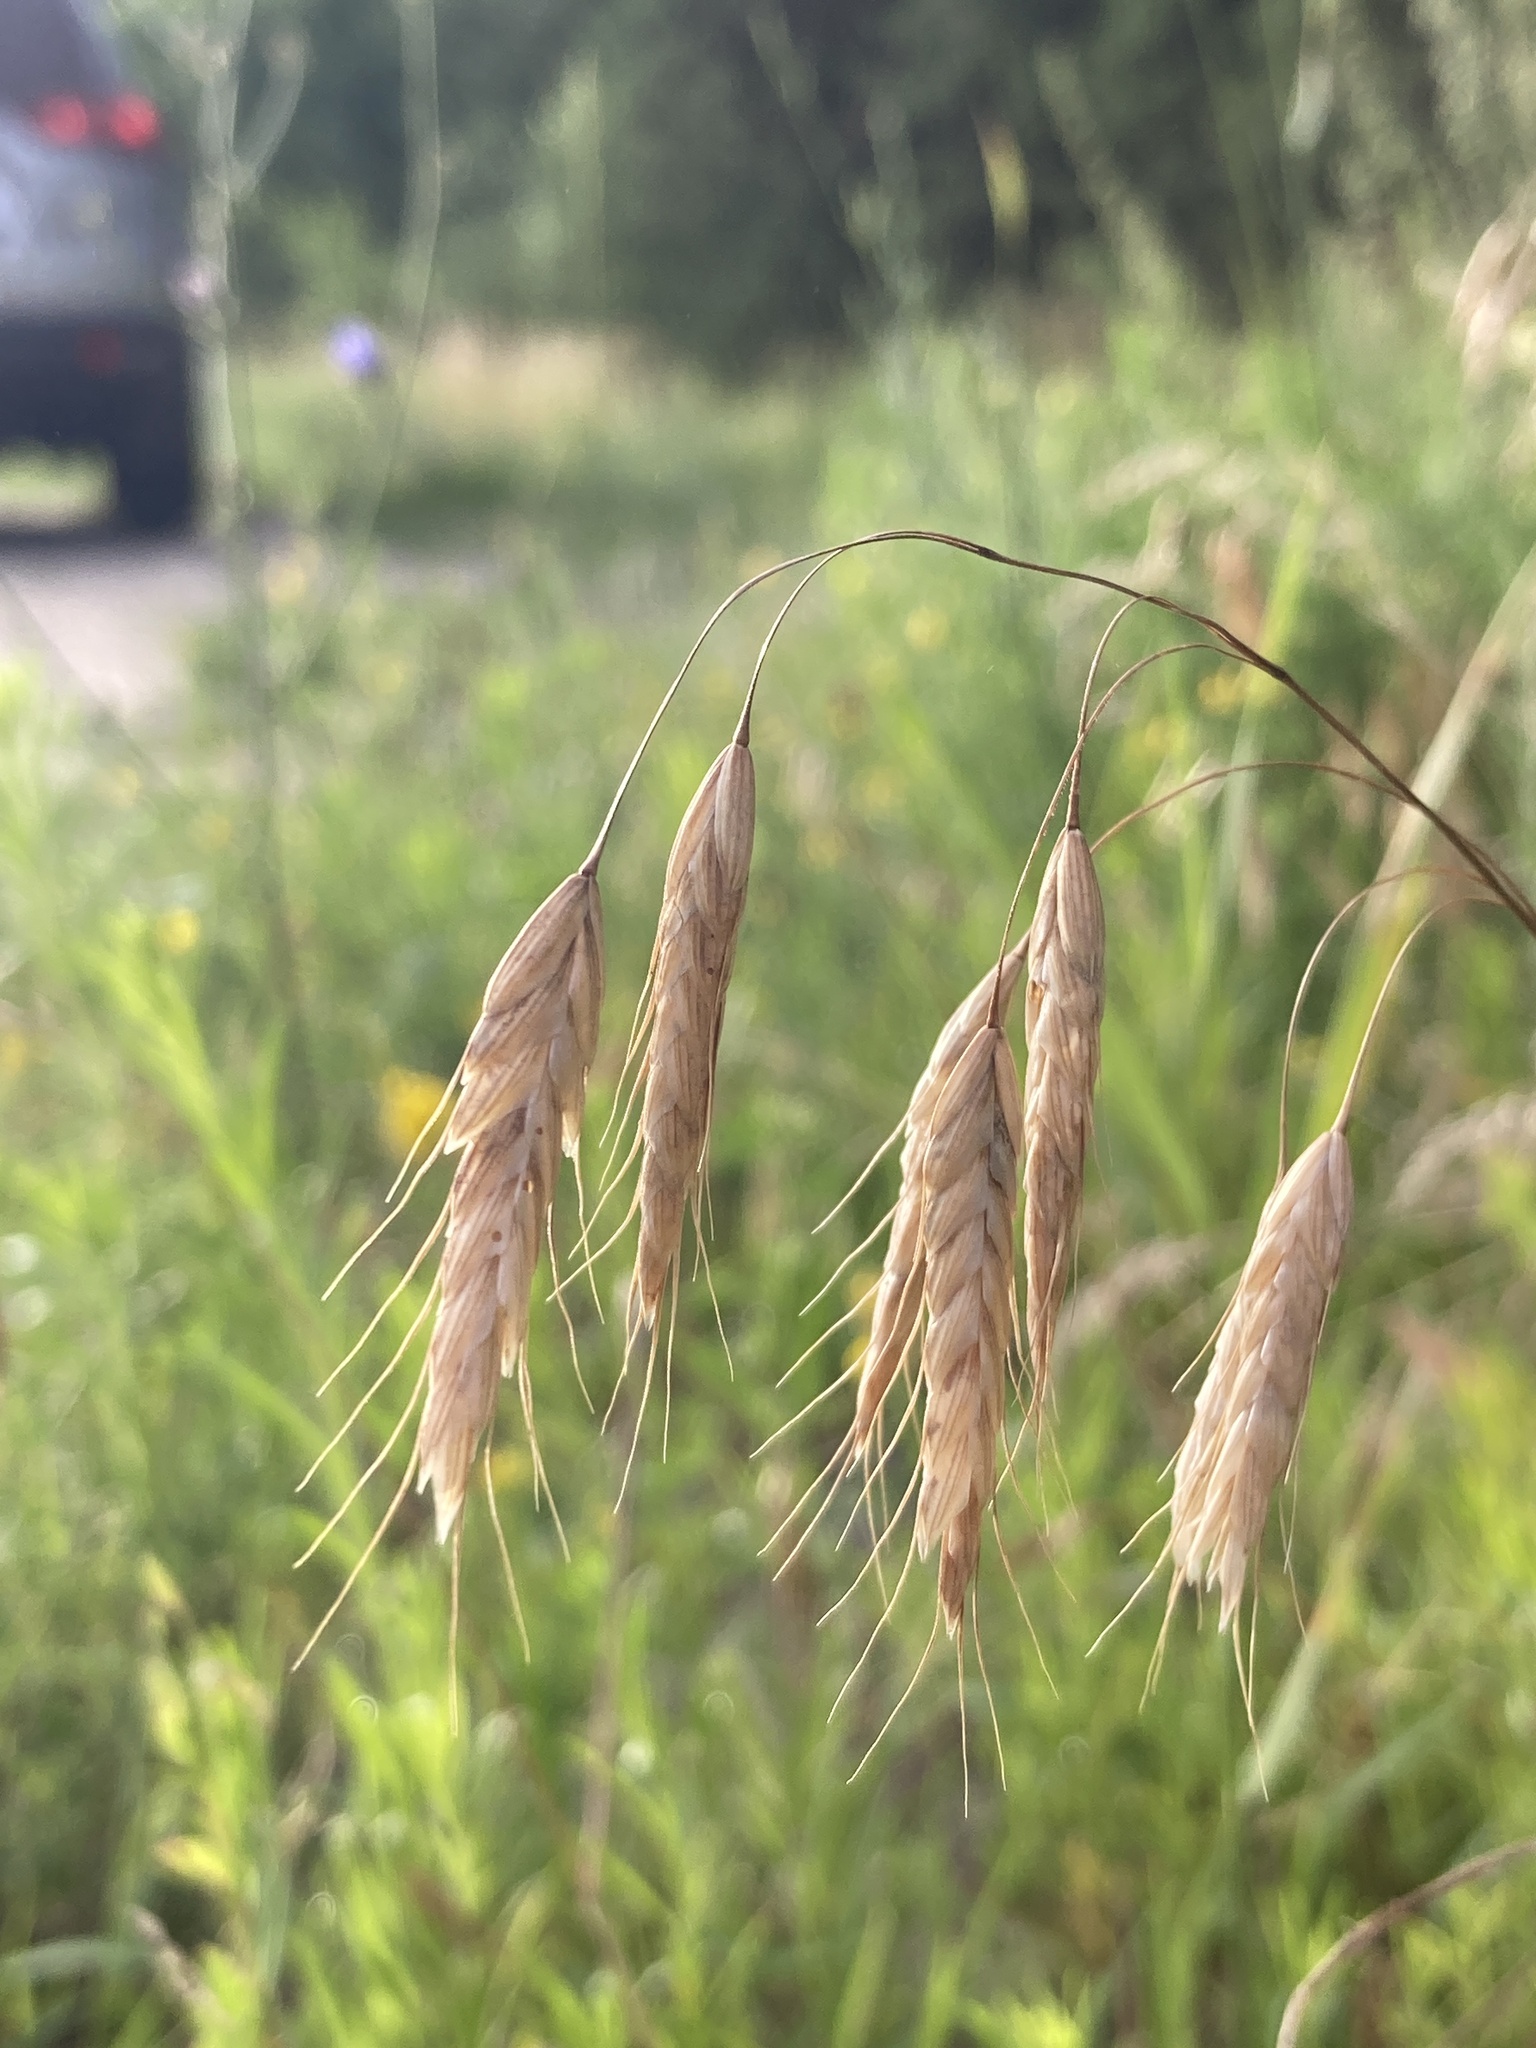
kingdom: Plantae
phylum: Tracheophyta
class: Liliopsida
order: Poales
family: Poaceae
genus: Bromus
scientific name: Bromus squarrosus
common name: Corn brome
